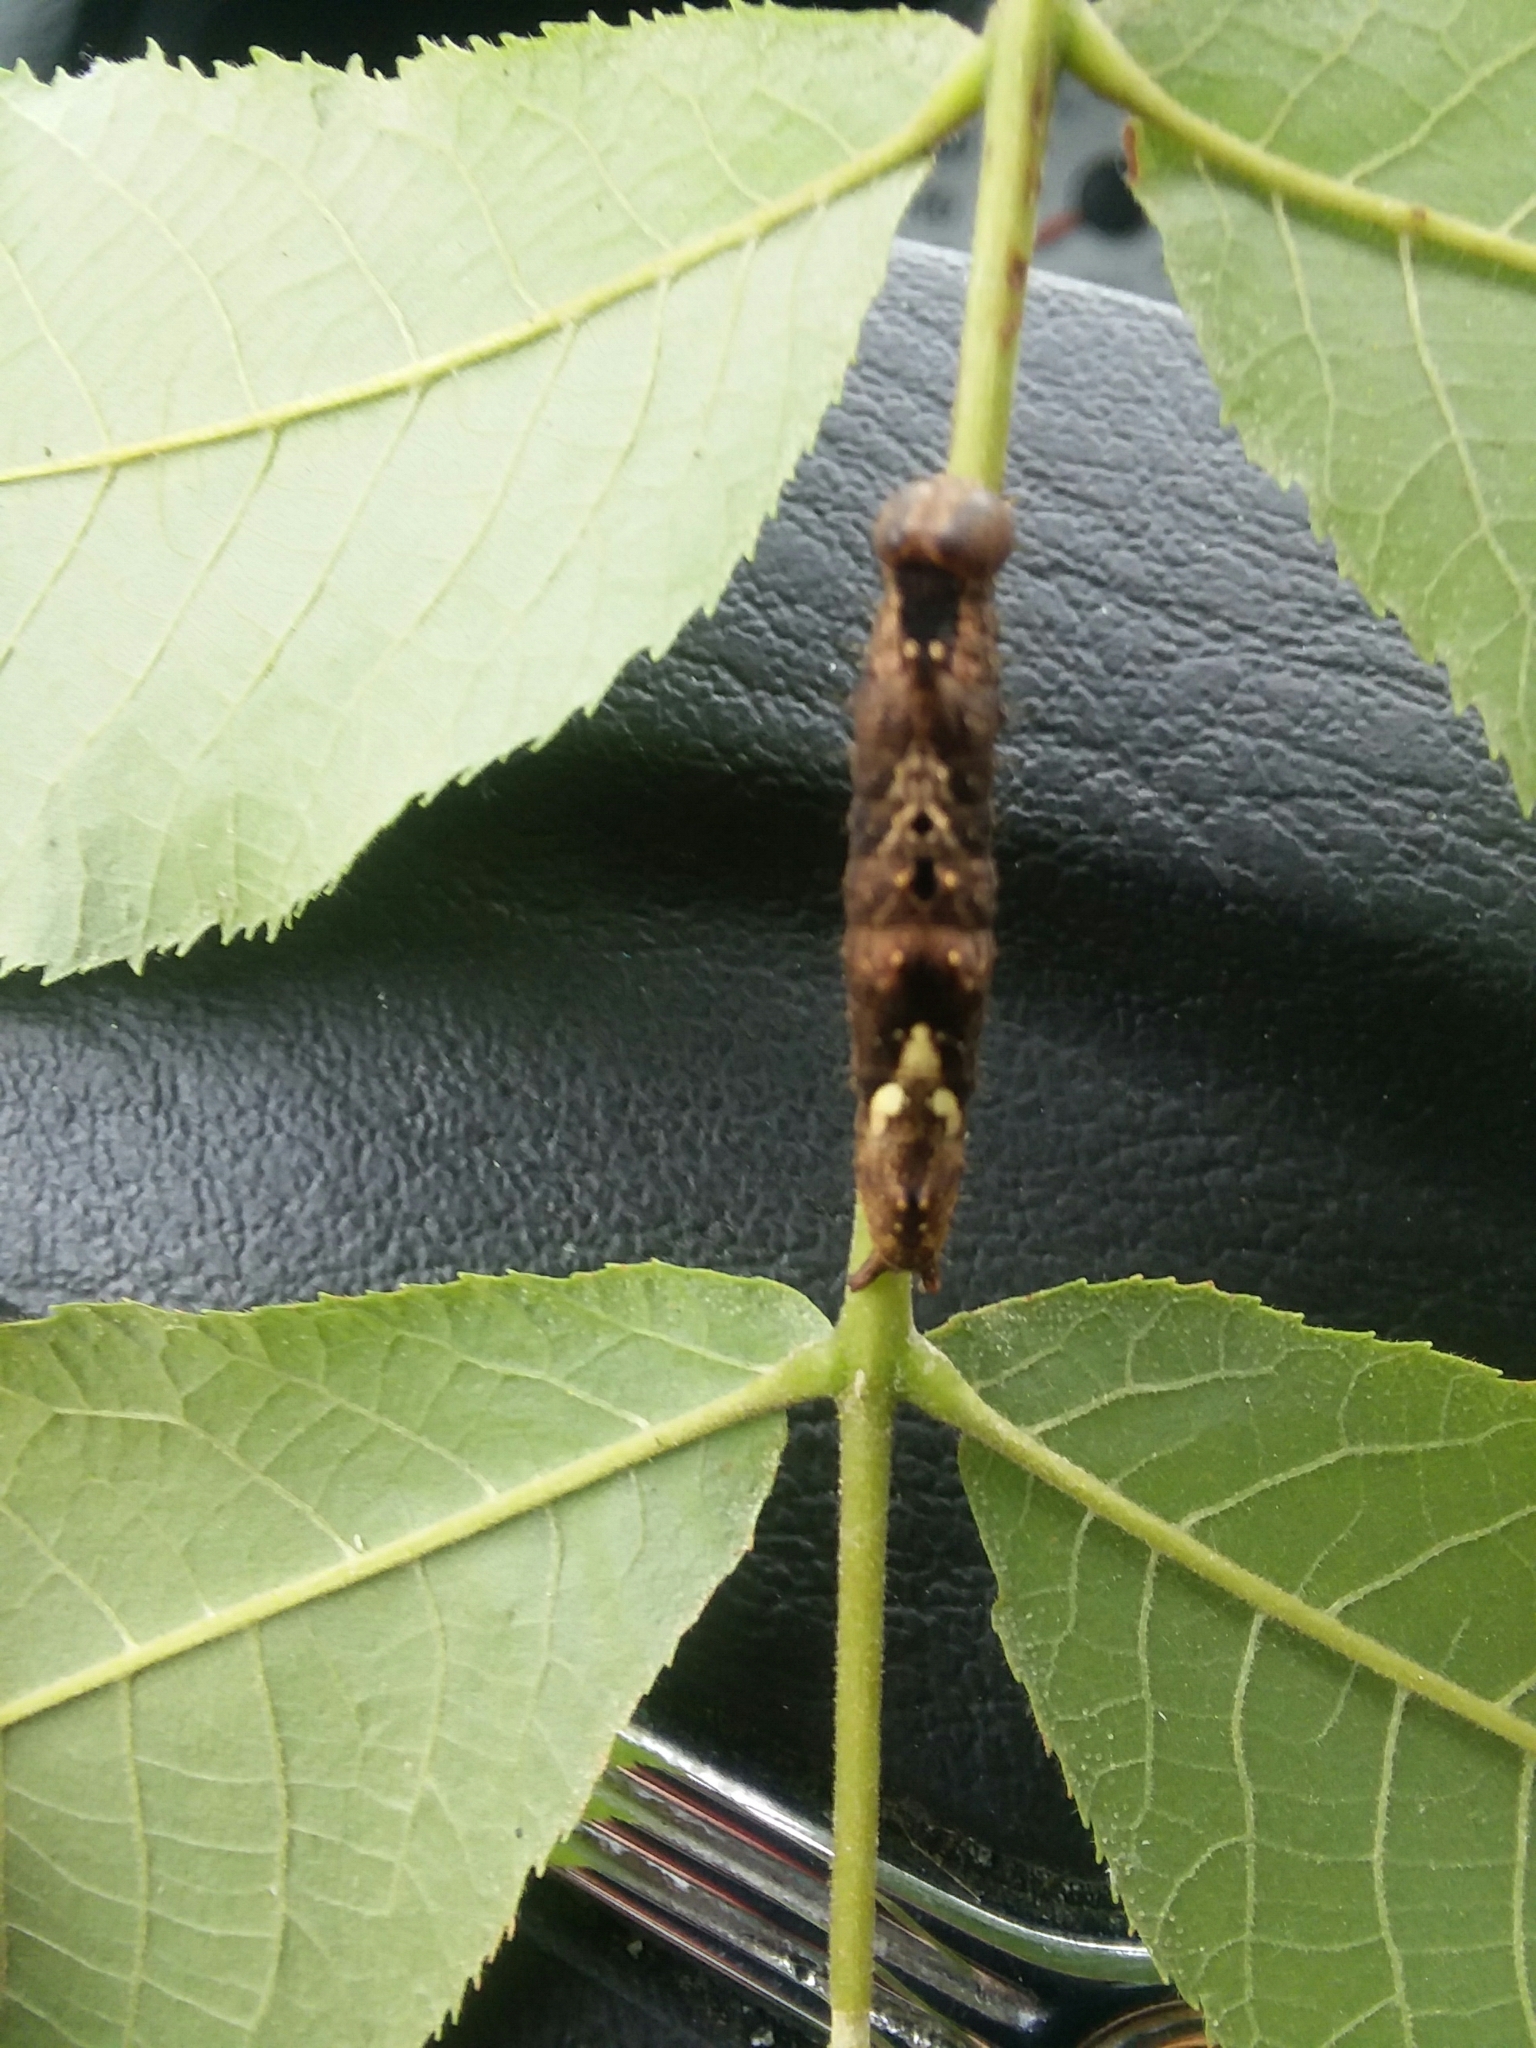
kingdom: Animalia
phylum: Arthropoda
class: Insecta
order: Lepidoptera
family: Notodontidae
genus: Schizura
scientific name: Schizura
